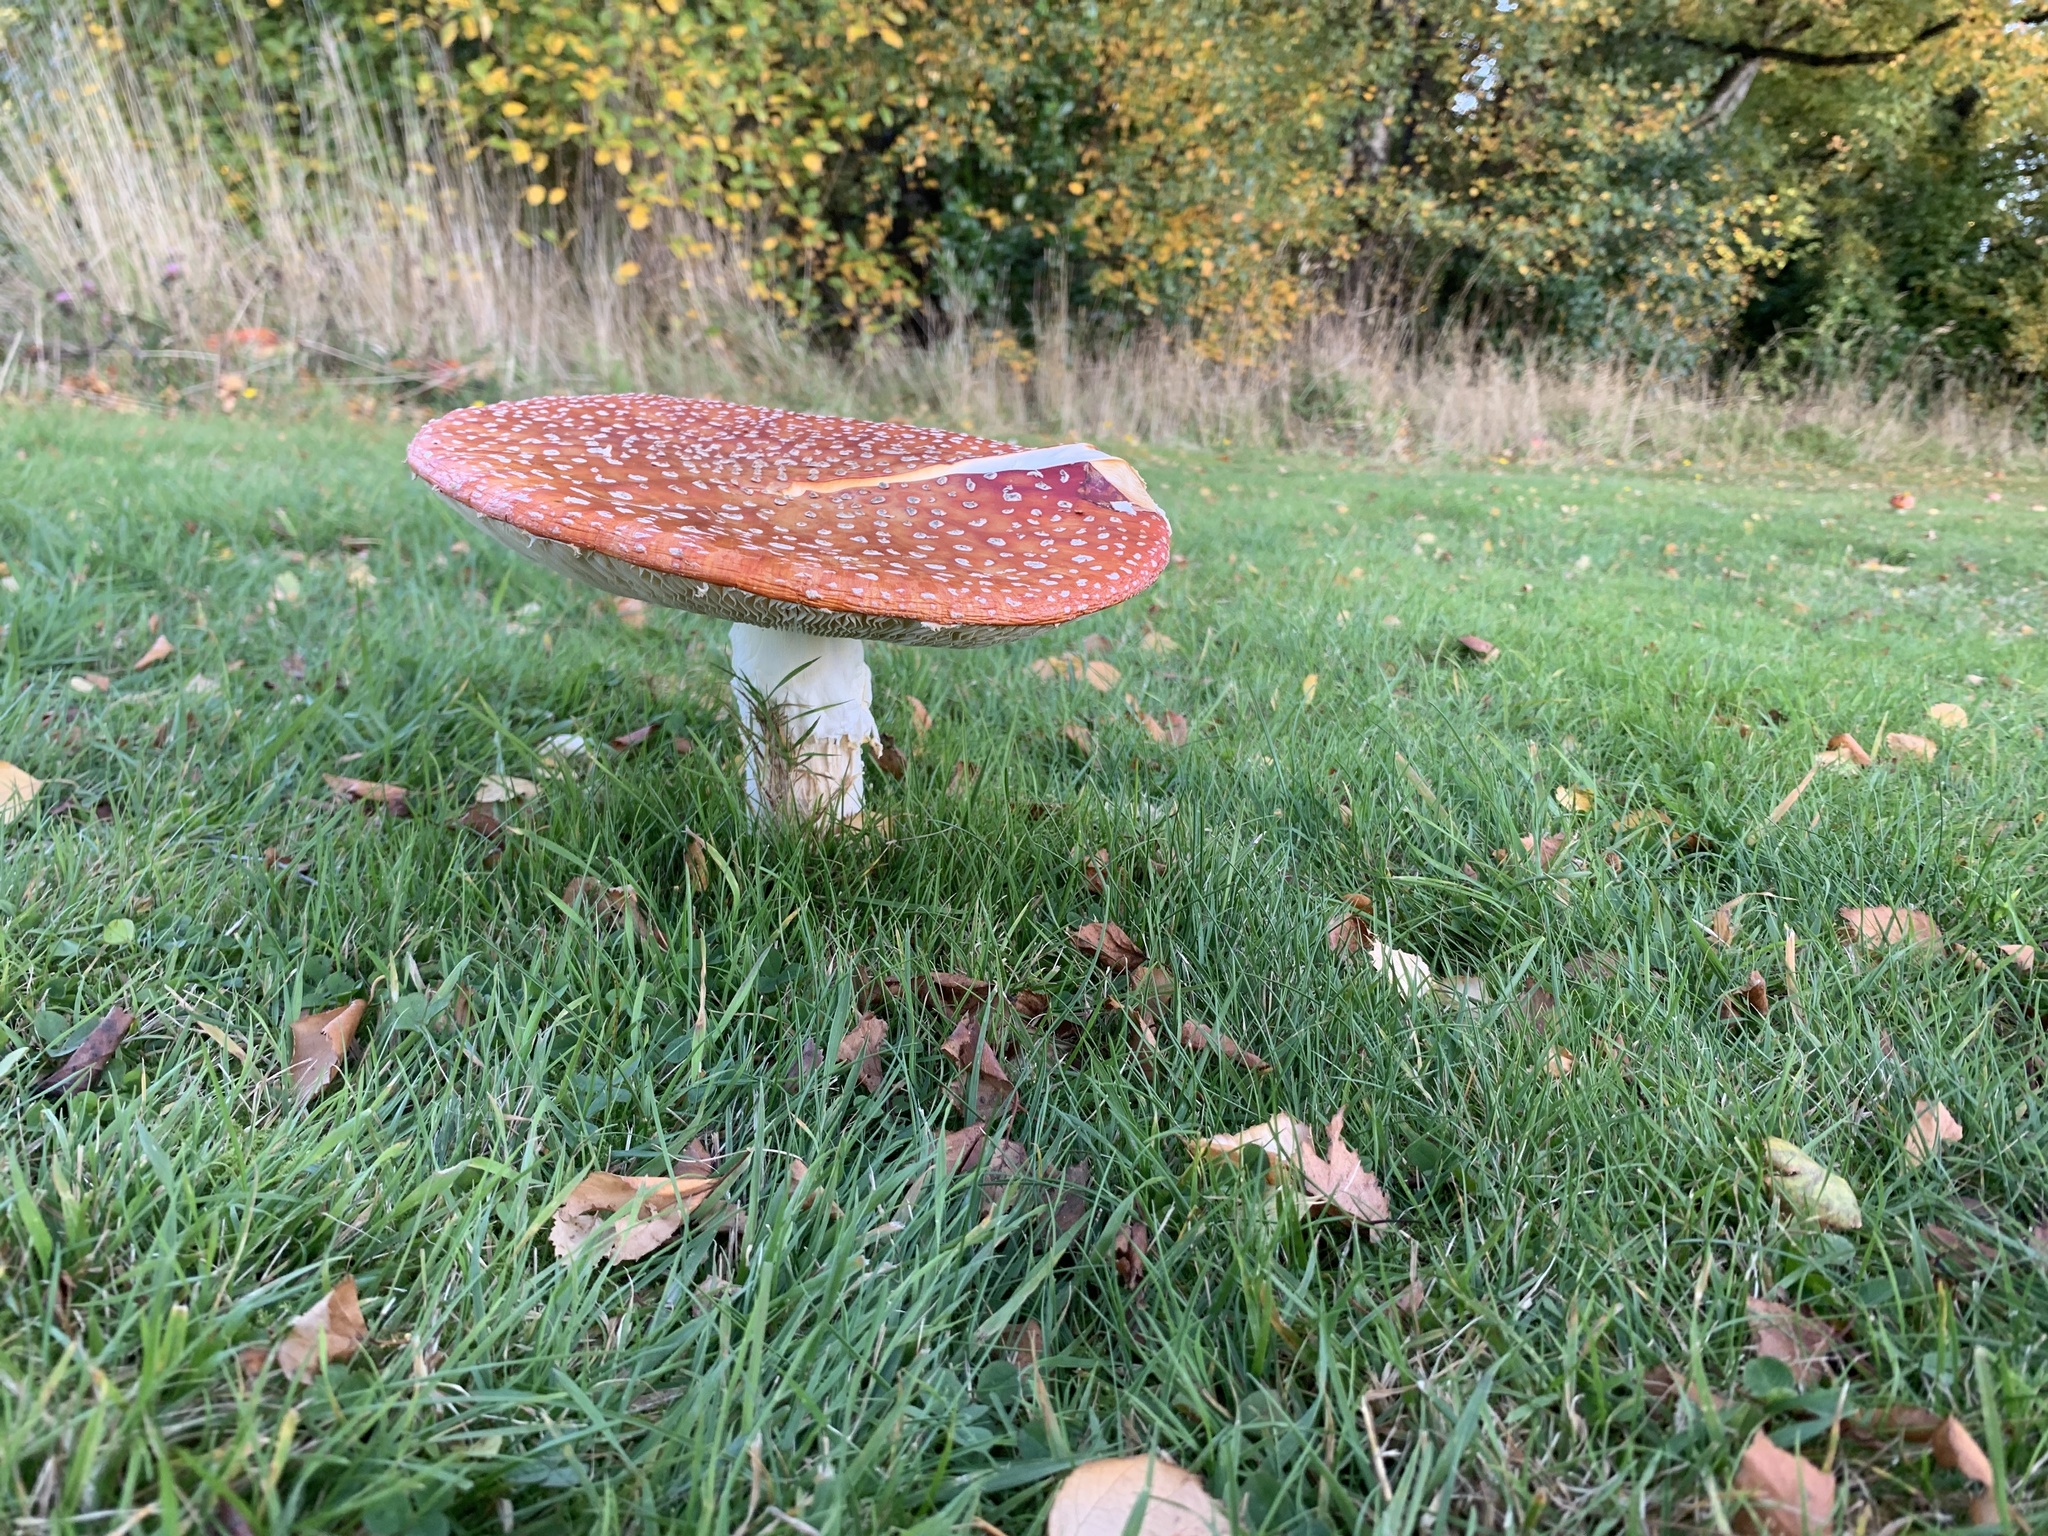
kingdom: Fungi
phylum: Basidiomycota
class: Agaricomycetes
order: Agaricales
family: Amanitaceae
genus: Amanita
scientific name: Amanita muscaria
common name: Fly agaric
